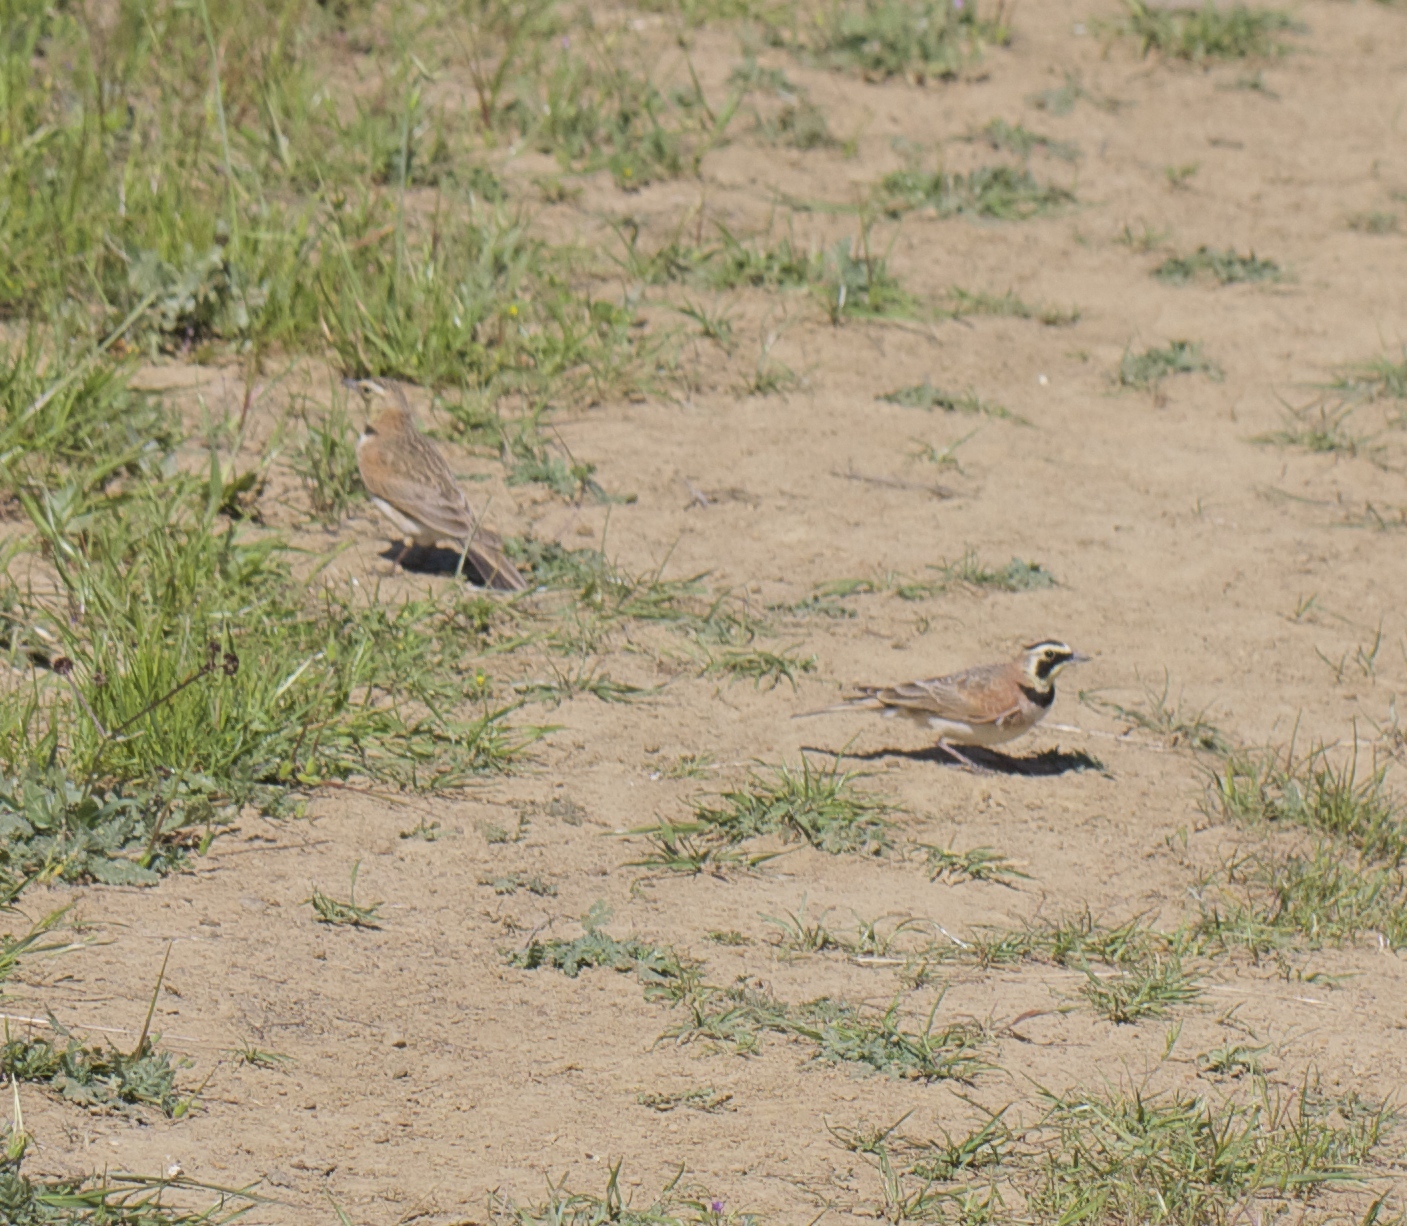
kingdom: Animalia
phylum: Chordata
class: Aves
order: Passeriformes
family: Alaudidae
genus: Eremophila
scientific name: Eremophila alpestris
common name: Horned lark
